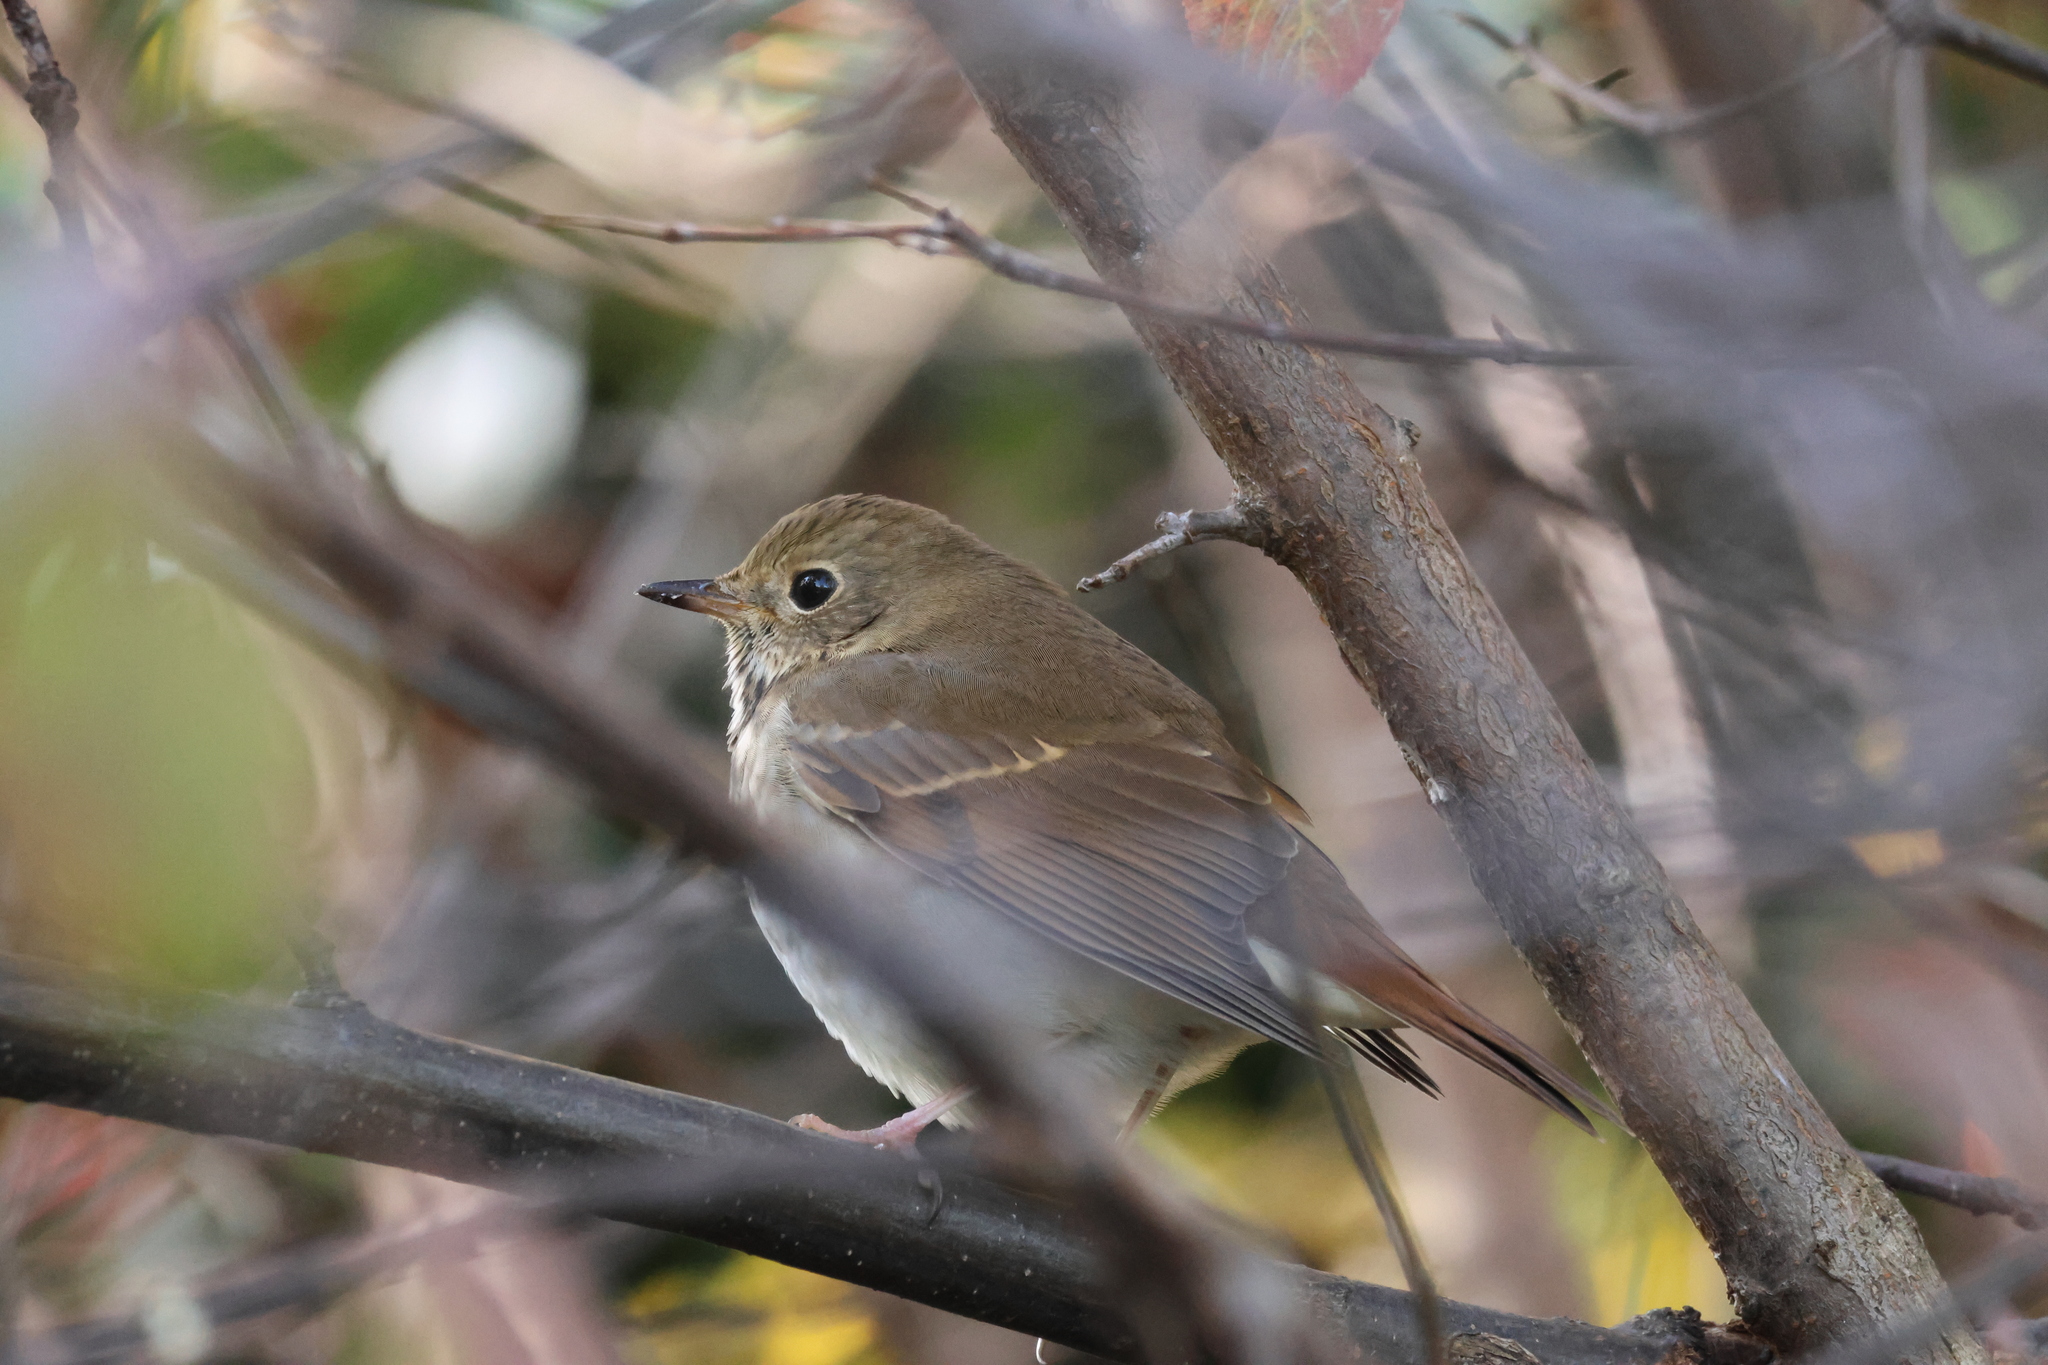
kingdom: Animalia
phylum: Chordata
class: Aves
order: Passeriformes
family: Turdidae
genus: Catharus
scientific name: Catharus guttatus
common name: Hermit thrush
